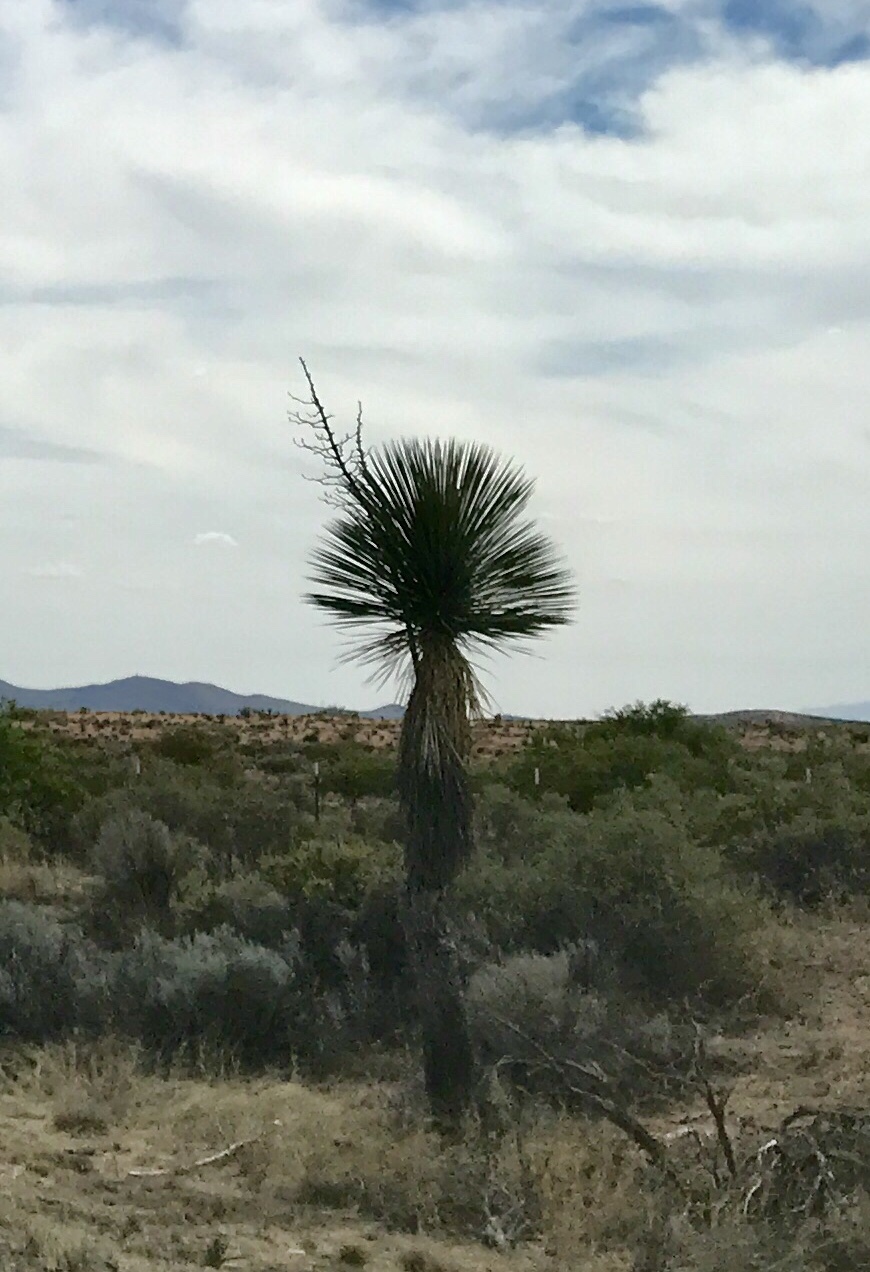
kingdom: Plantae
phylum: Tracheophyta
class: Liliopsida
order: Asparagales
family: Asparagaceae
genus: Yucca
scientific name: Yucca elata
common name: Palmella
